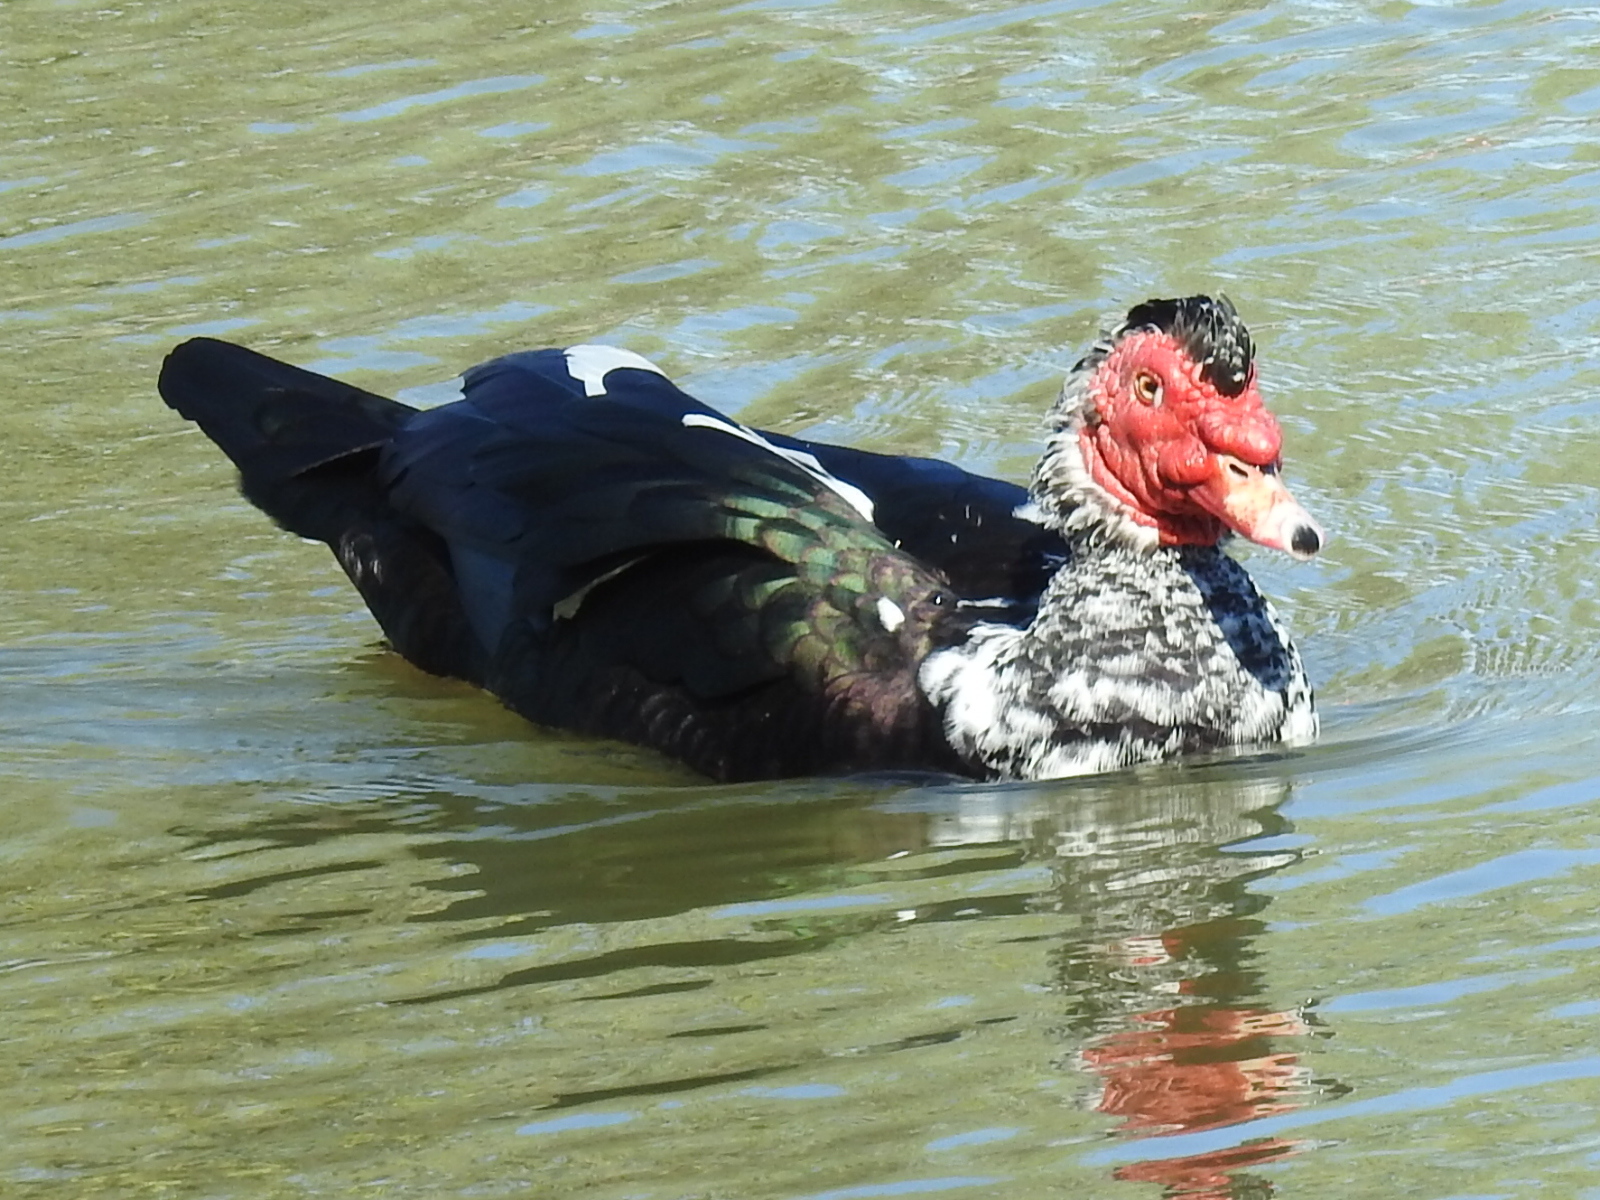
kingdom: Animalia
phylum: Chordata
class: Aves
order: Anseriformes
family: Anatidae
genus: Cairina
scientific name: Cairina moschata
